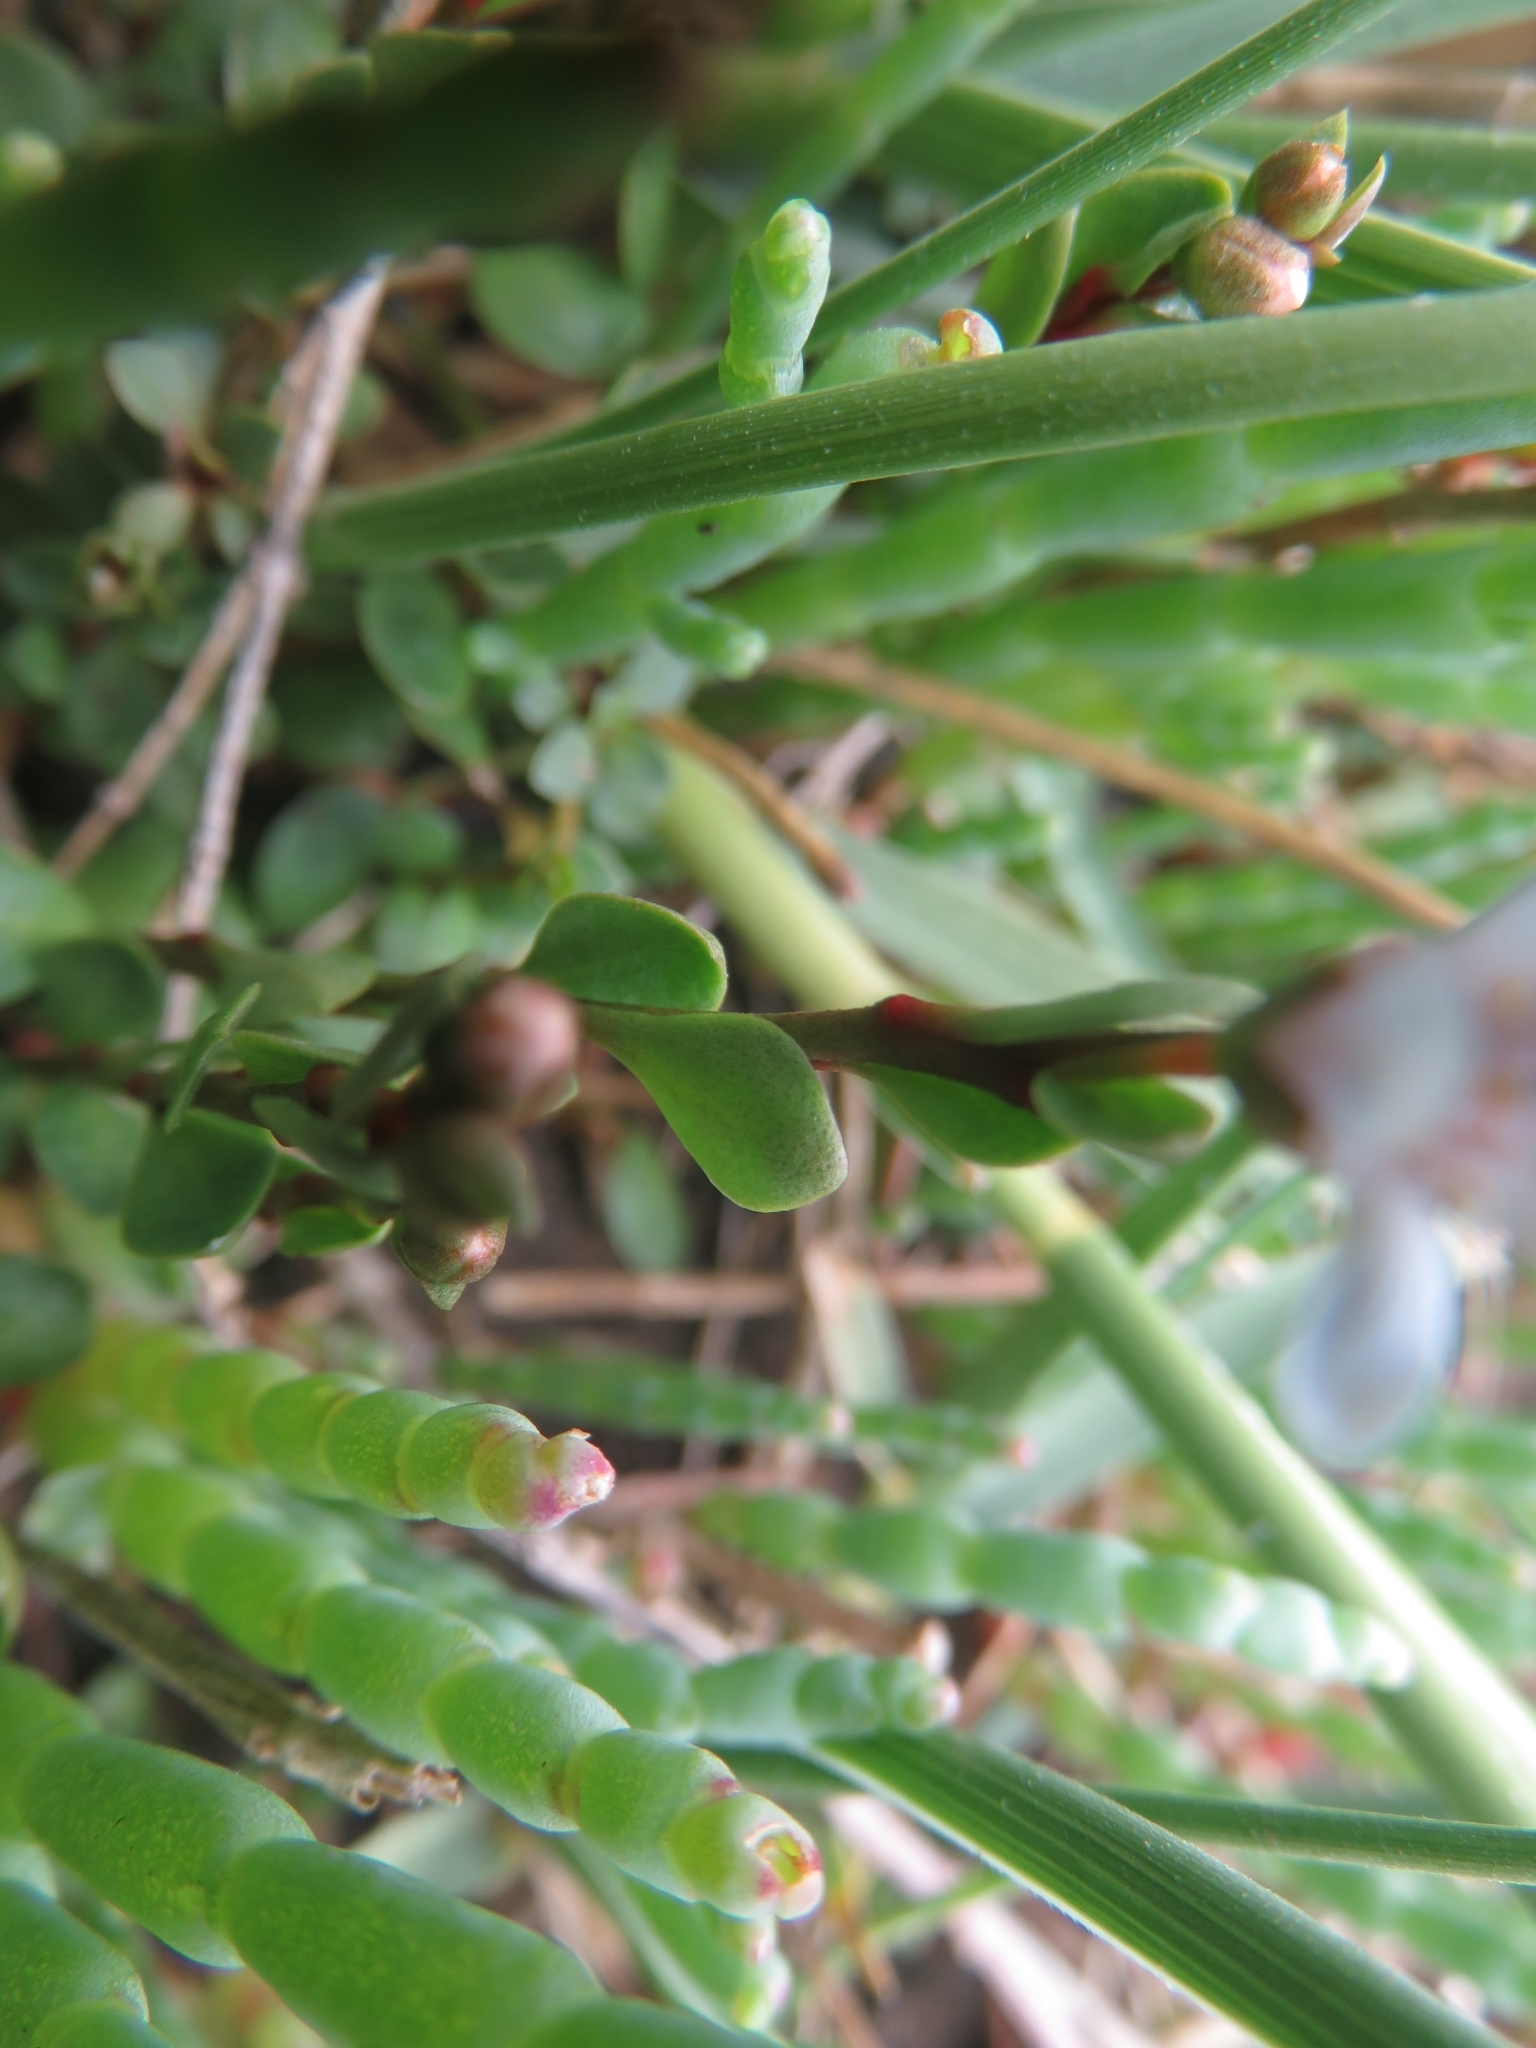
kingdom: Plantae
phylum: Tracheophyta
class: Magnoliopsida
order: Ericales
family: Primulaceae
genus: Samolus
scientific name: Samolus repens
